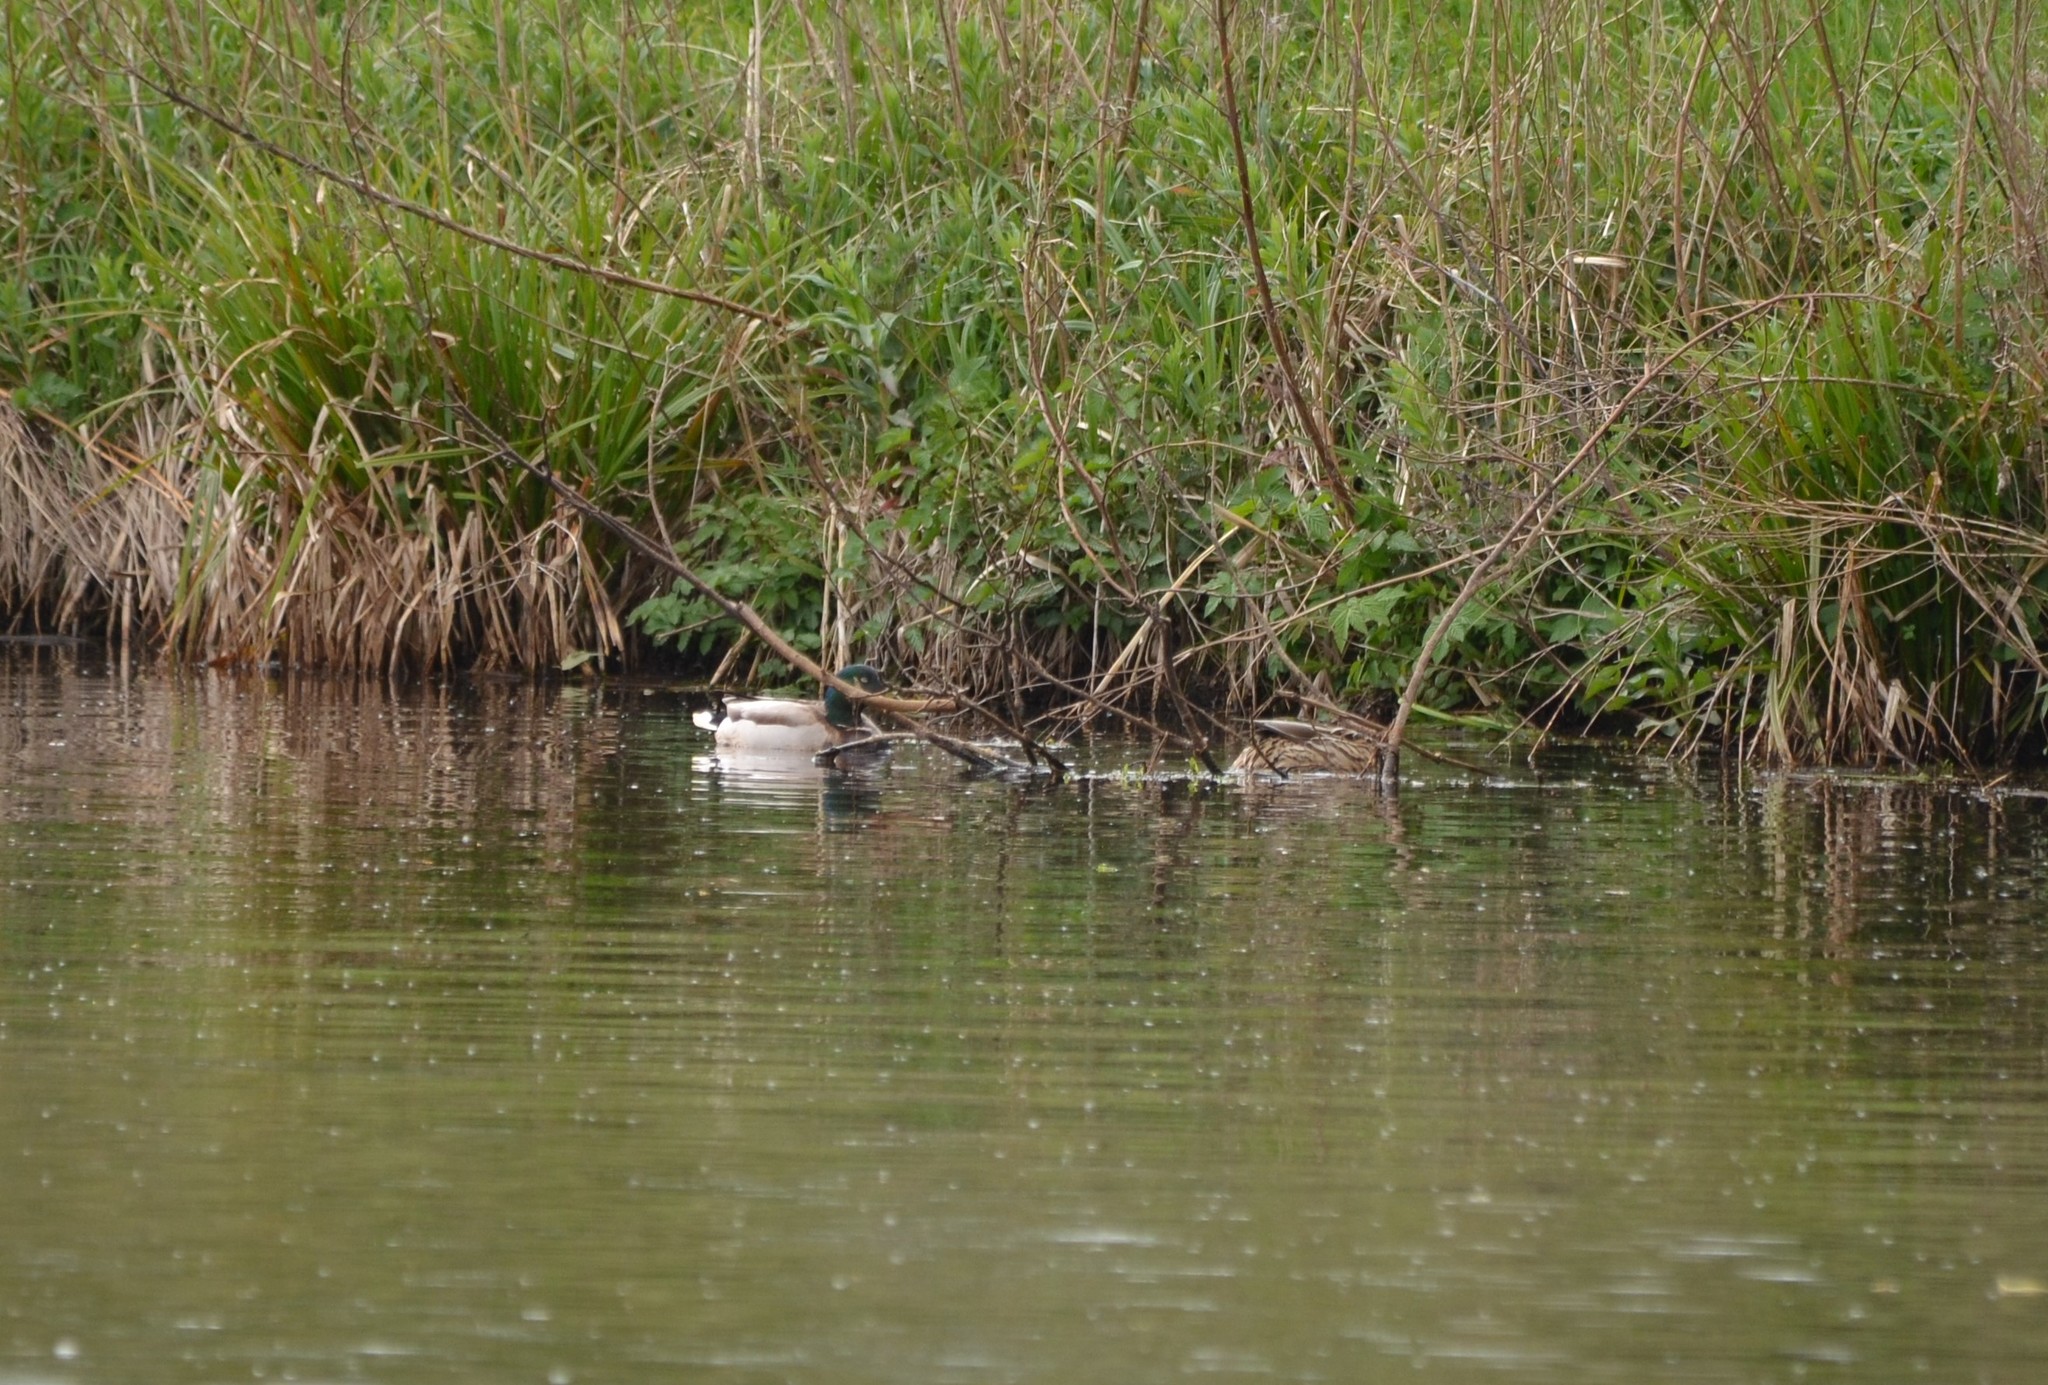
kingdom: Animalia
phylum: Chordata
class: Aves
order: Anseriformes
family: Anatidae
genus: Anas
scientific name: Anas platyrhynchos
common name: Mallard
